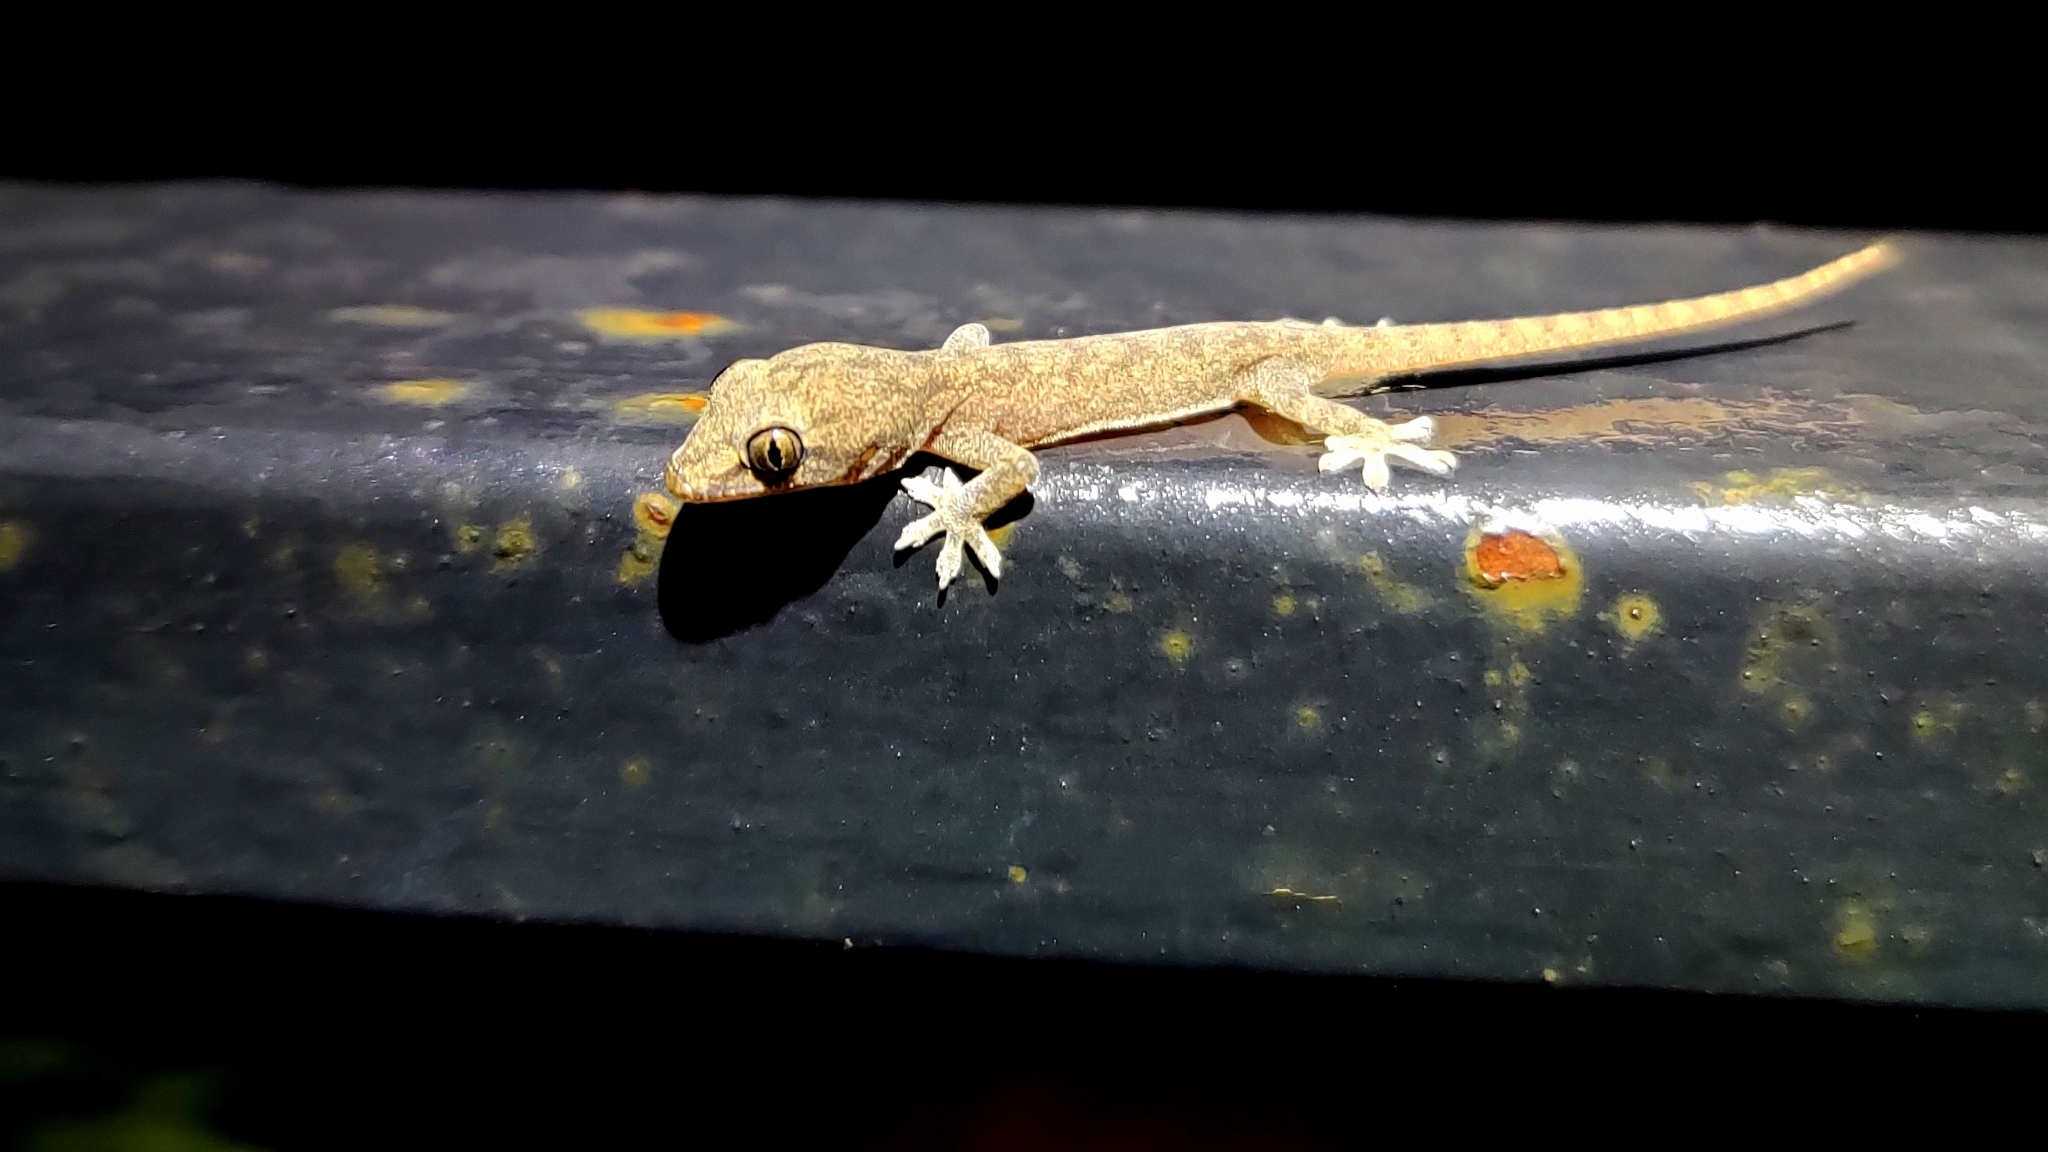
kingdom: Animalia
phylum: Chordata
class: Squamata
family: Gekkonidae
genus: Hemidactylus
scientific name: Hemidactylus frenatus
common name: Common house gecko
